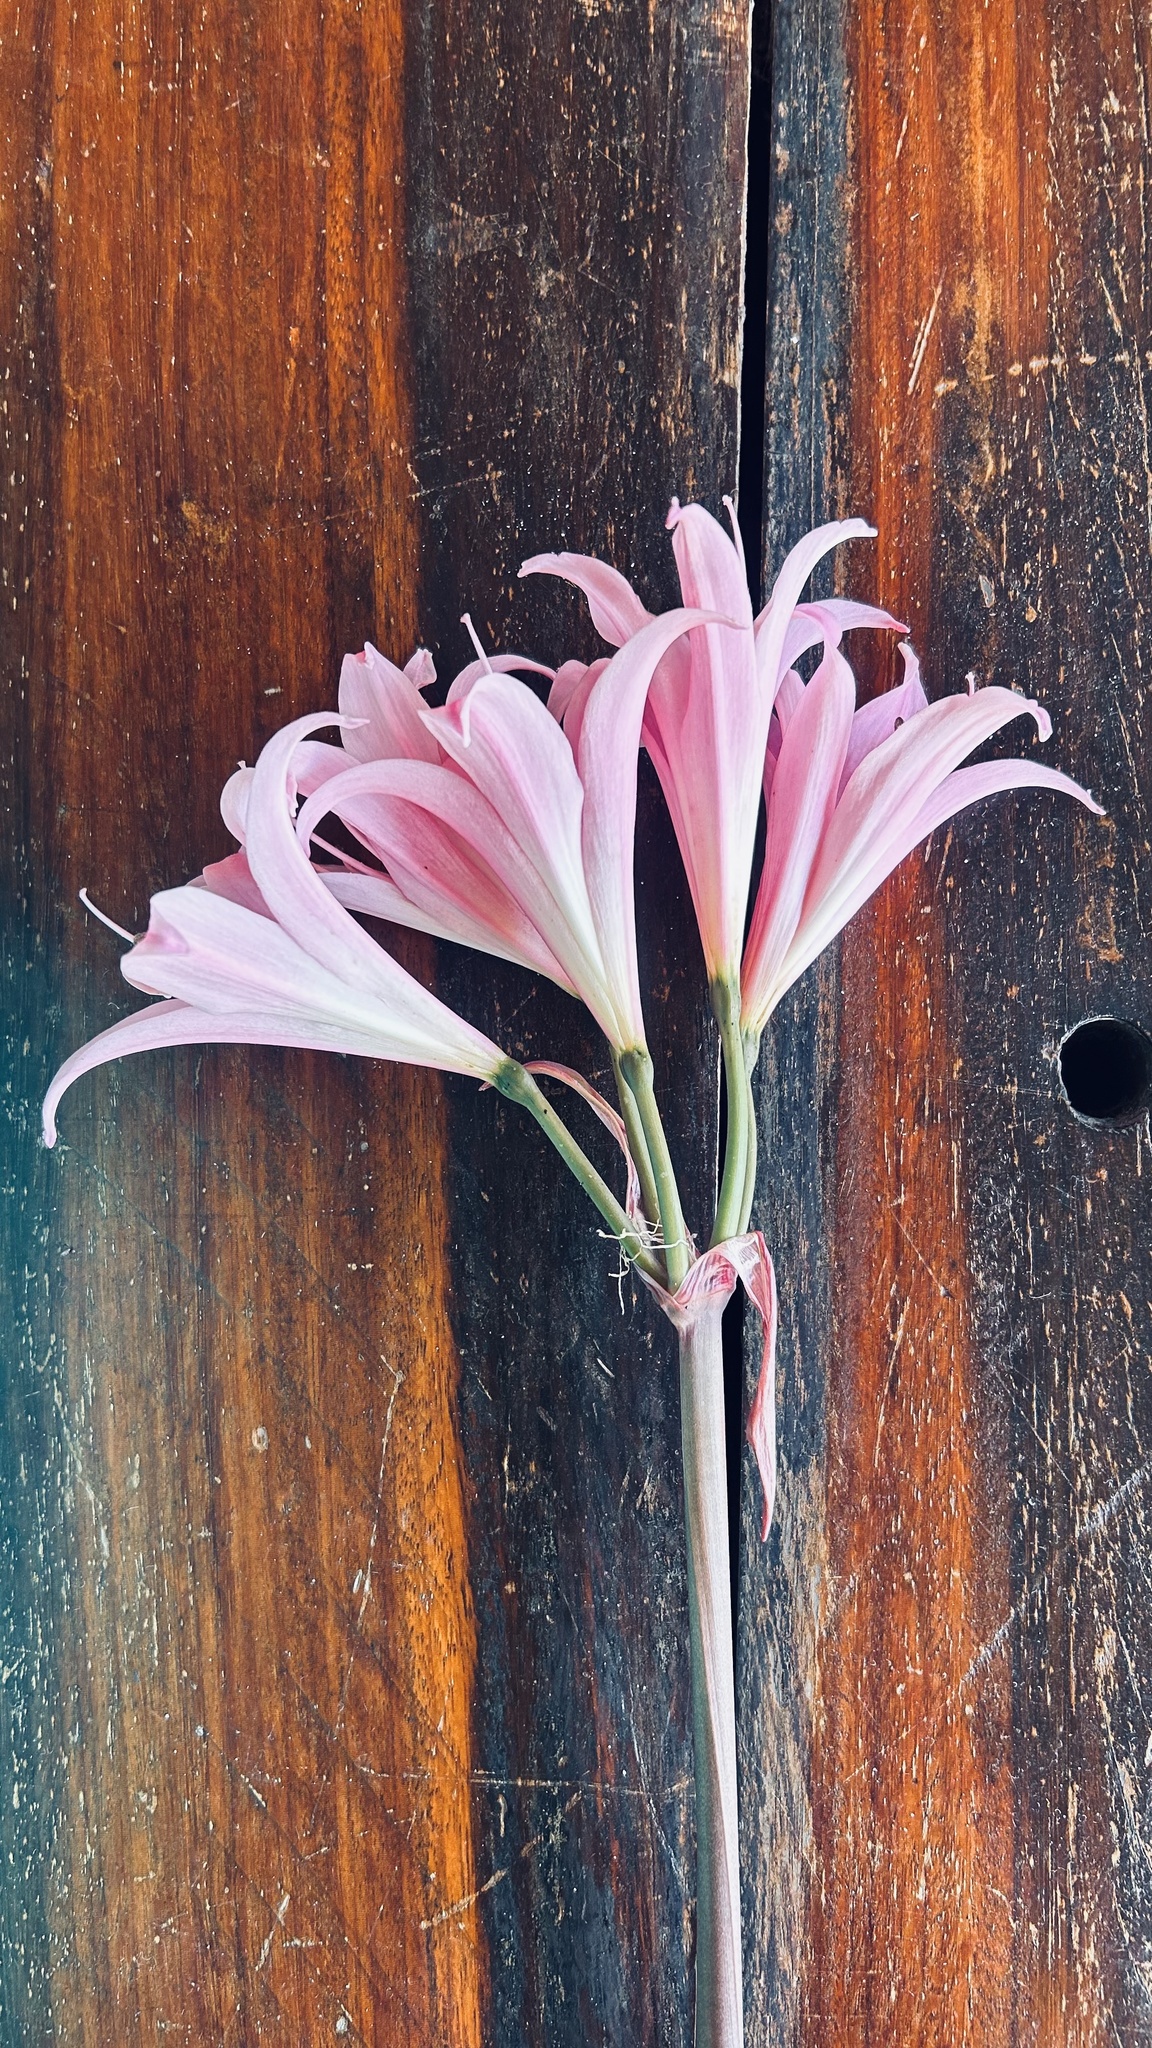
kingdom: Plantae
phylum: Tracheophyta
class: Liliopsida
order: Asparagales
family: Amaryllidaceae
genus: Amaryllis
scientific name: Amaryllis belladonna
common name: Jersey lily
